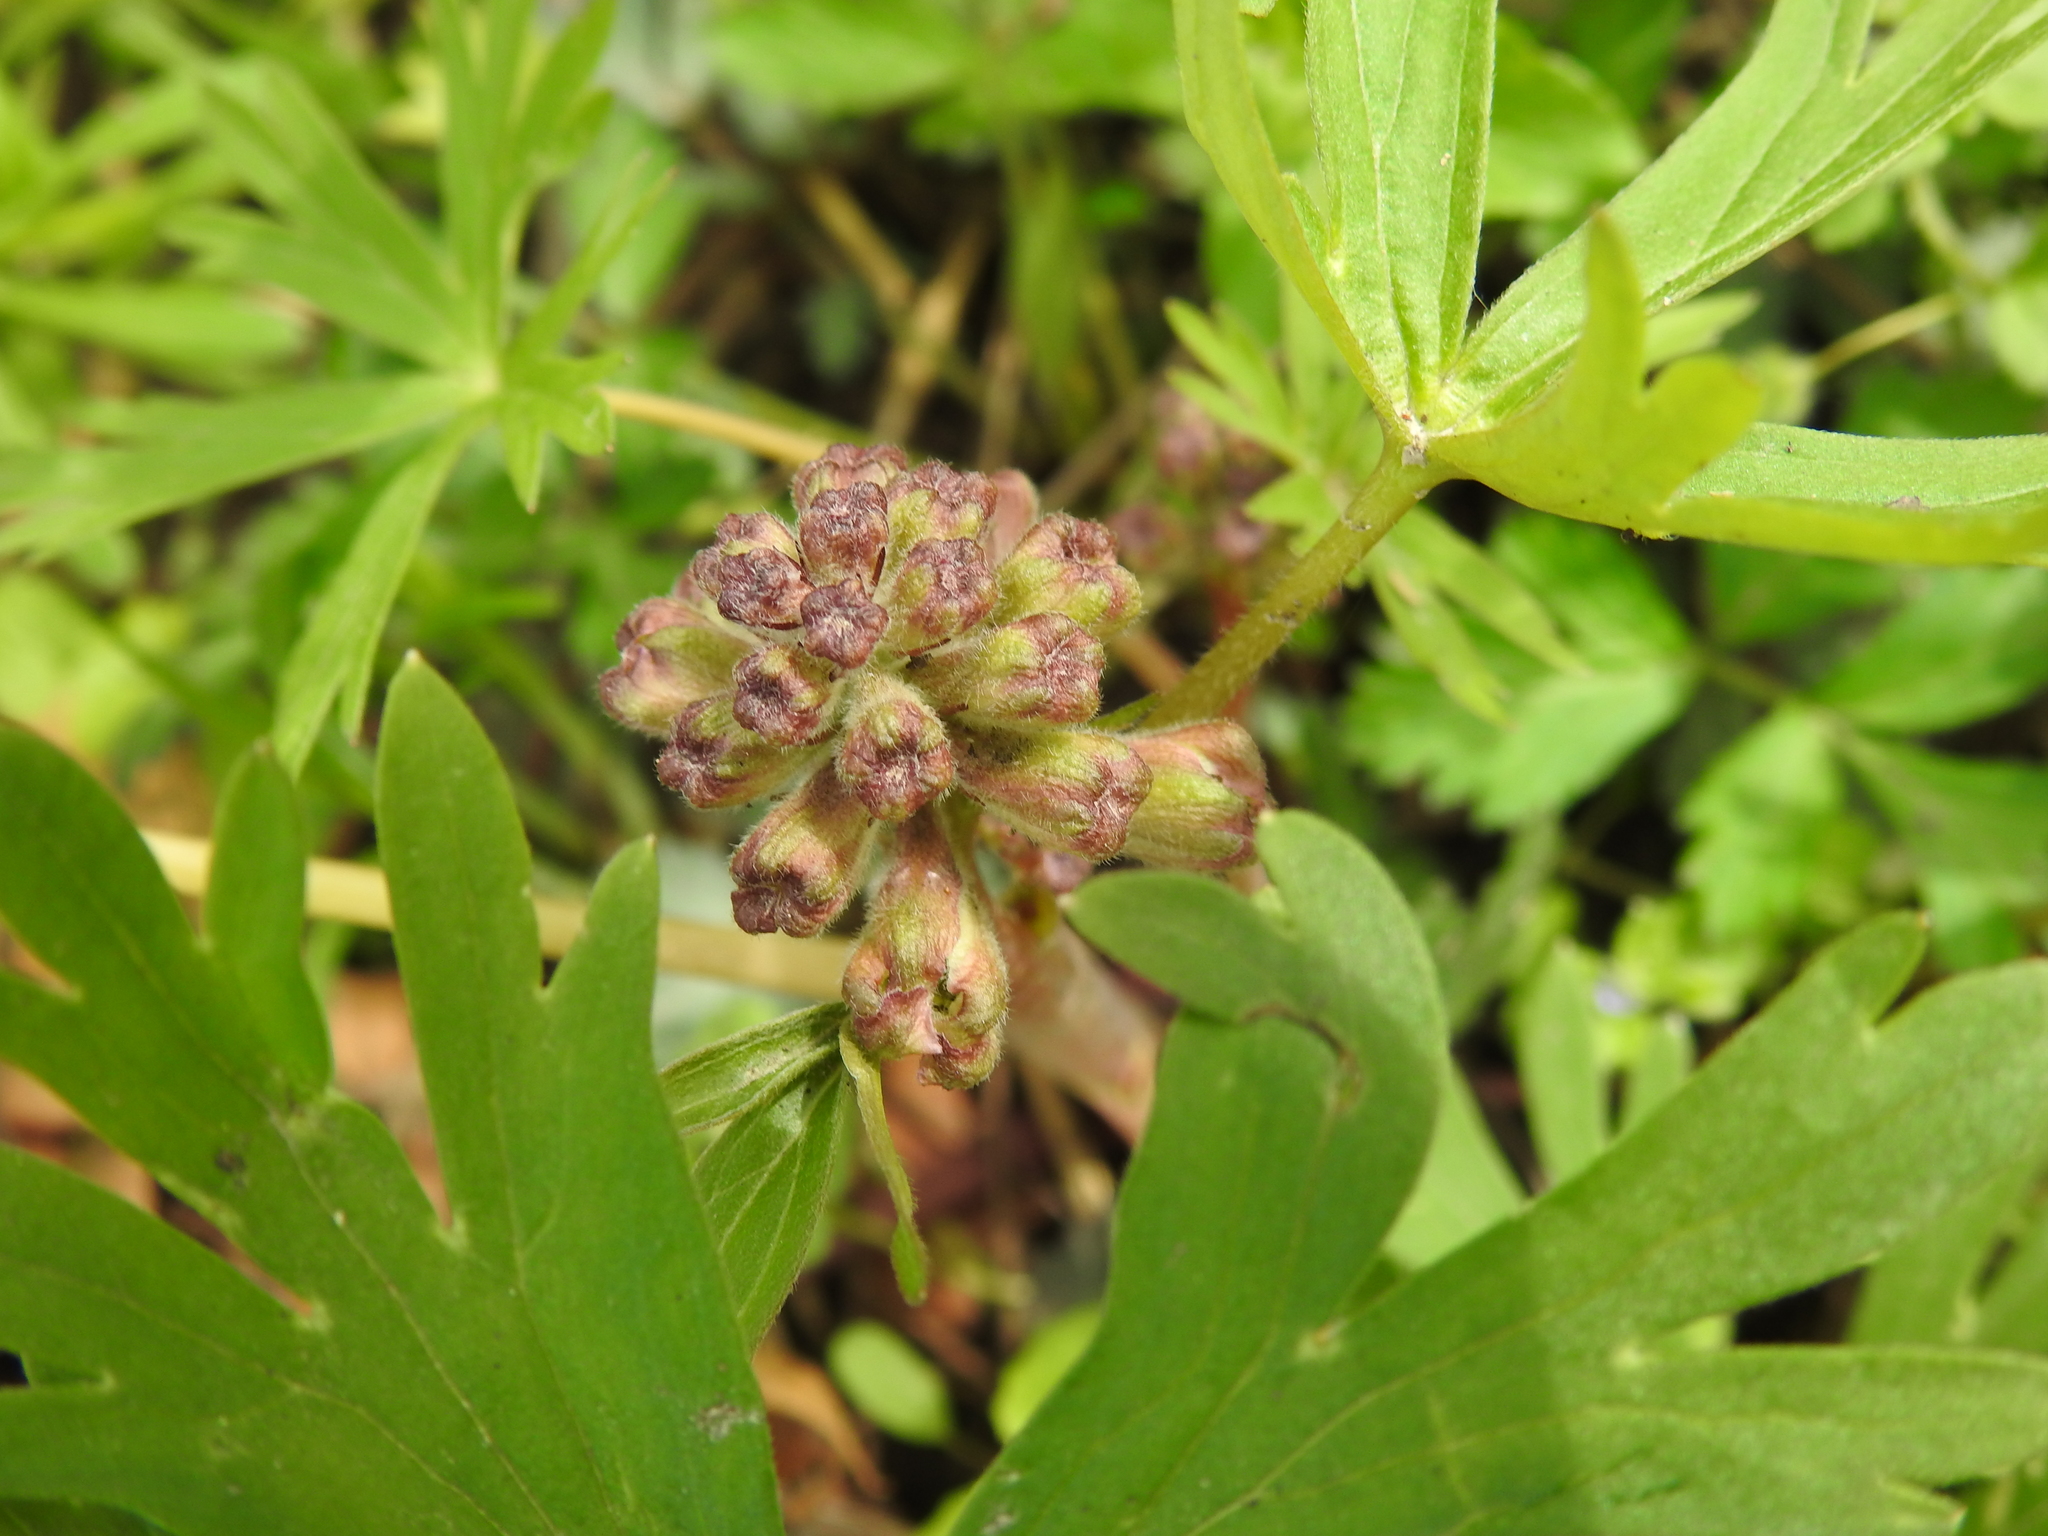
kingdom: Plantae
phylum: Tracheophyta
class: Magnoliopsida
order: Ranunculales
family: Ranunculaceae
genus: Delphinium
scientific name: Delphinium tricorne
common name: Dwarf larkspur
